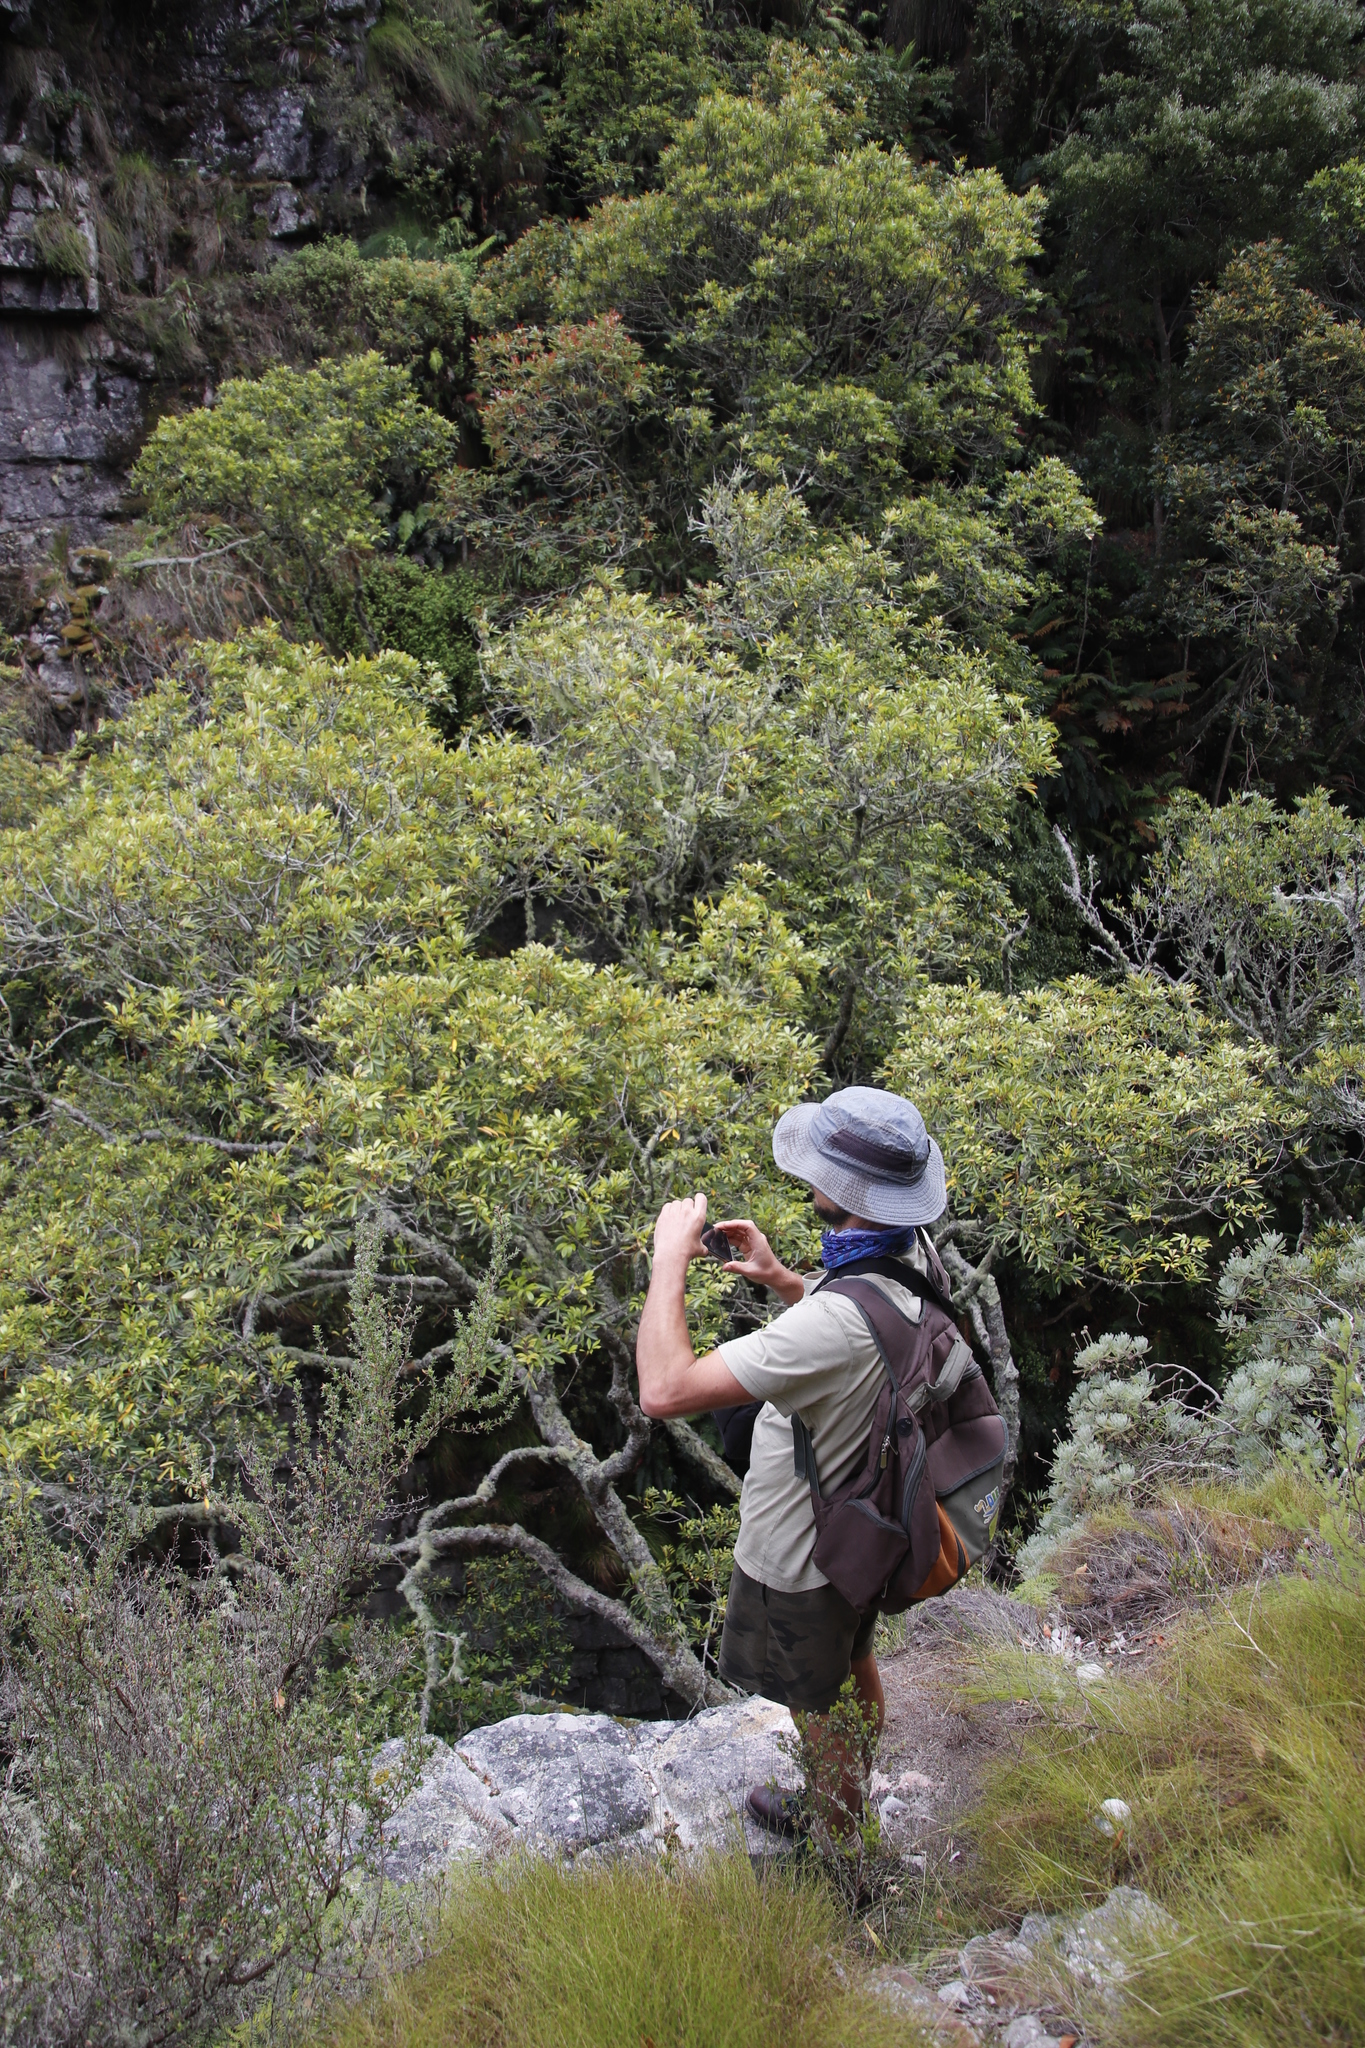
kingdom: Plantae
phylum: Tracheophyta
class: Magnoliopsida
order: Oxalidales
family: Cunoniaceae
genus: Cunonia
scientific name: Cunonia capensis
